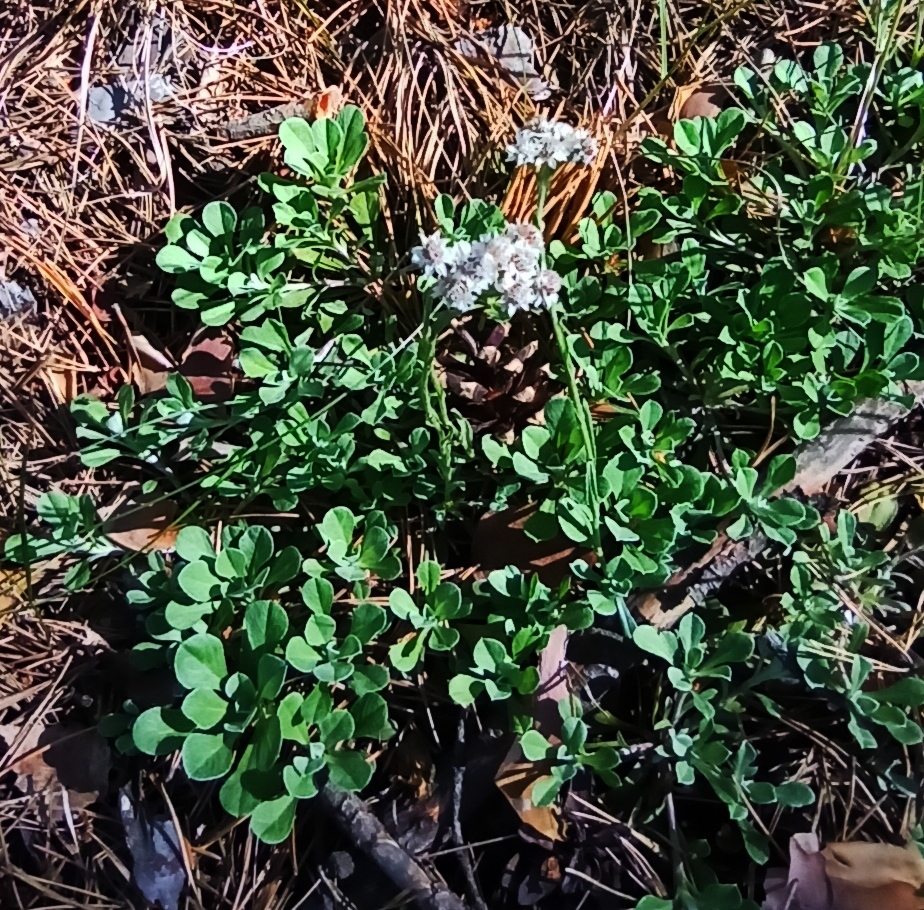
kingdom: Plantae
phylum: Tracheophyta
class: Magnoliopsida
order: Asterales
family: Asteraceae
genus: Antennaria
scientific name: Antennaria dioica
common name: Mountain everlasting
